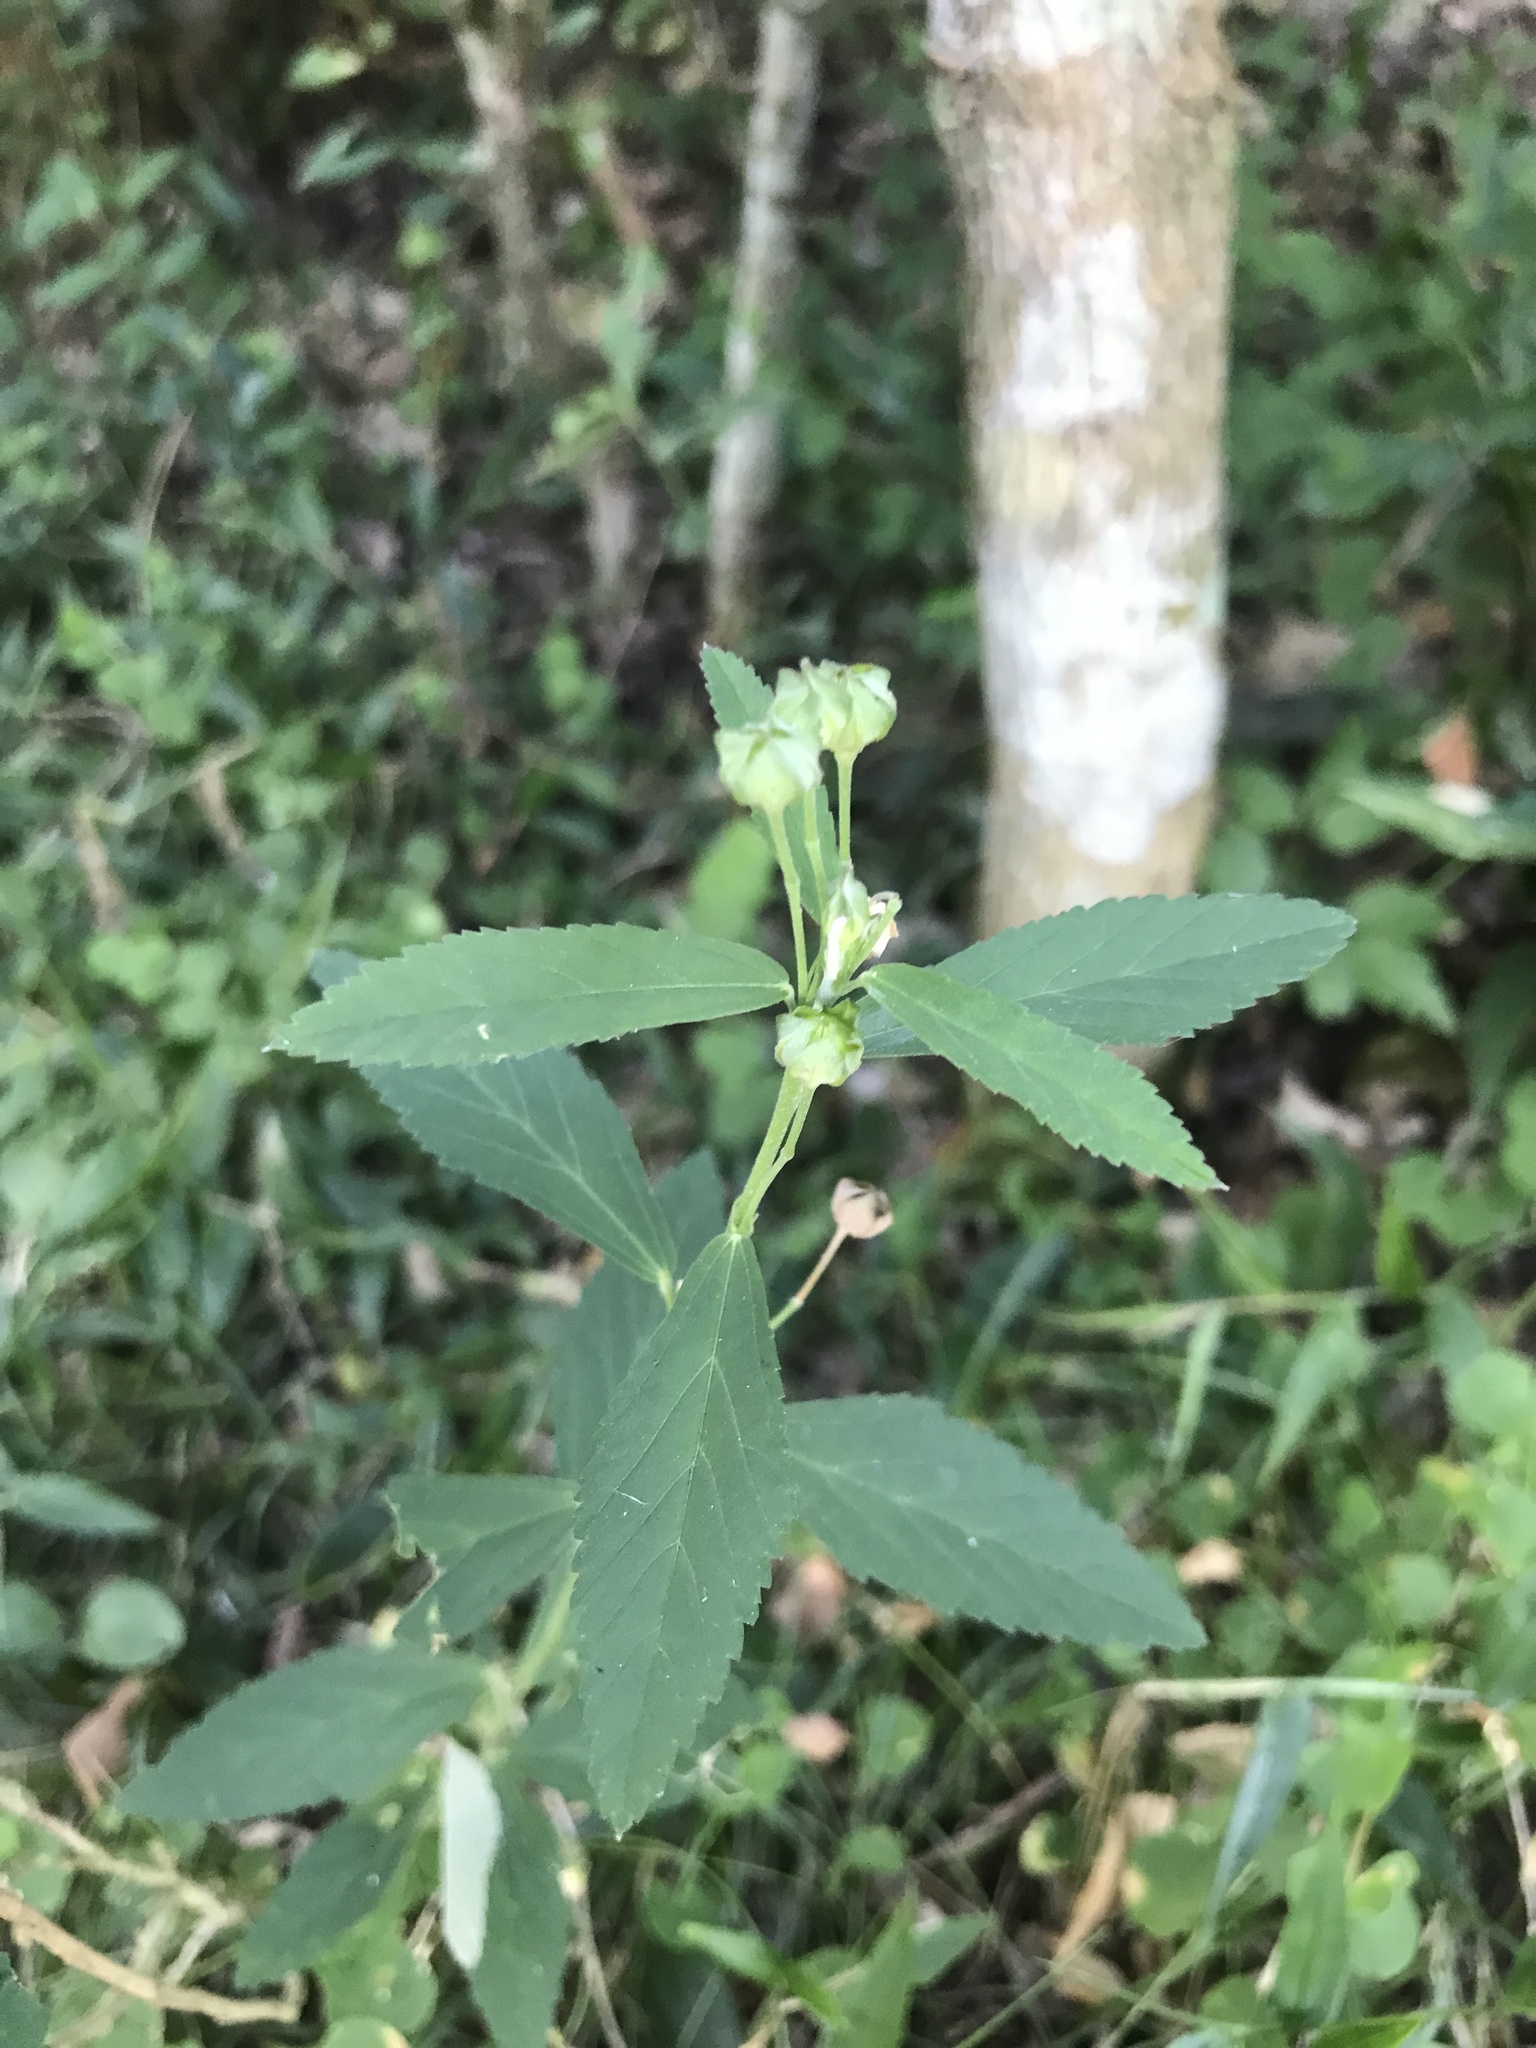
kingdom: Plantae
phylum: Tracheophyta
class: Magnoliopsida
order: Malvales
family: Malvaceae
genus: Sida
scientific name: Sida rhombifolia
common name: Queensland-hemp
